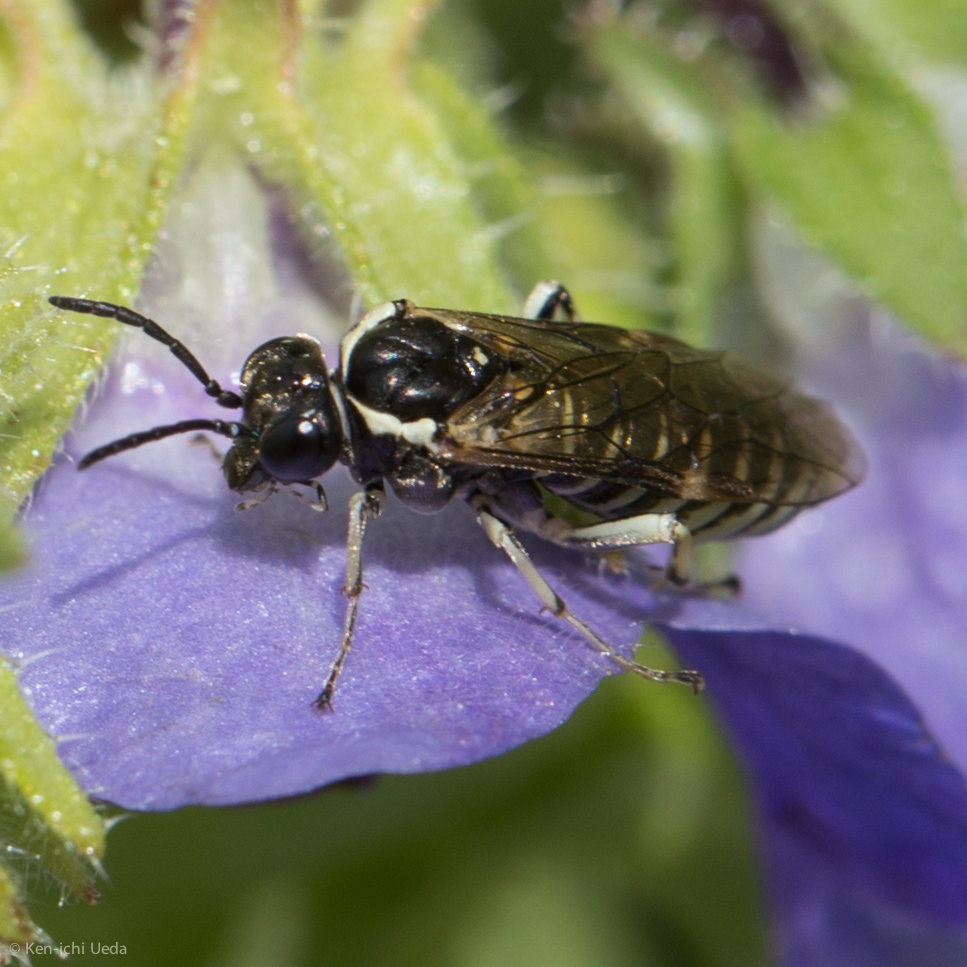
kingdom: Animalia
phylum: Arthropoda
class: Insecta
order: Hymenoptera
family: Tenthredinidae
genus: Filacus
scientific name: Filacus pluricinctus
